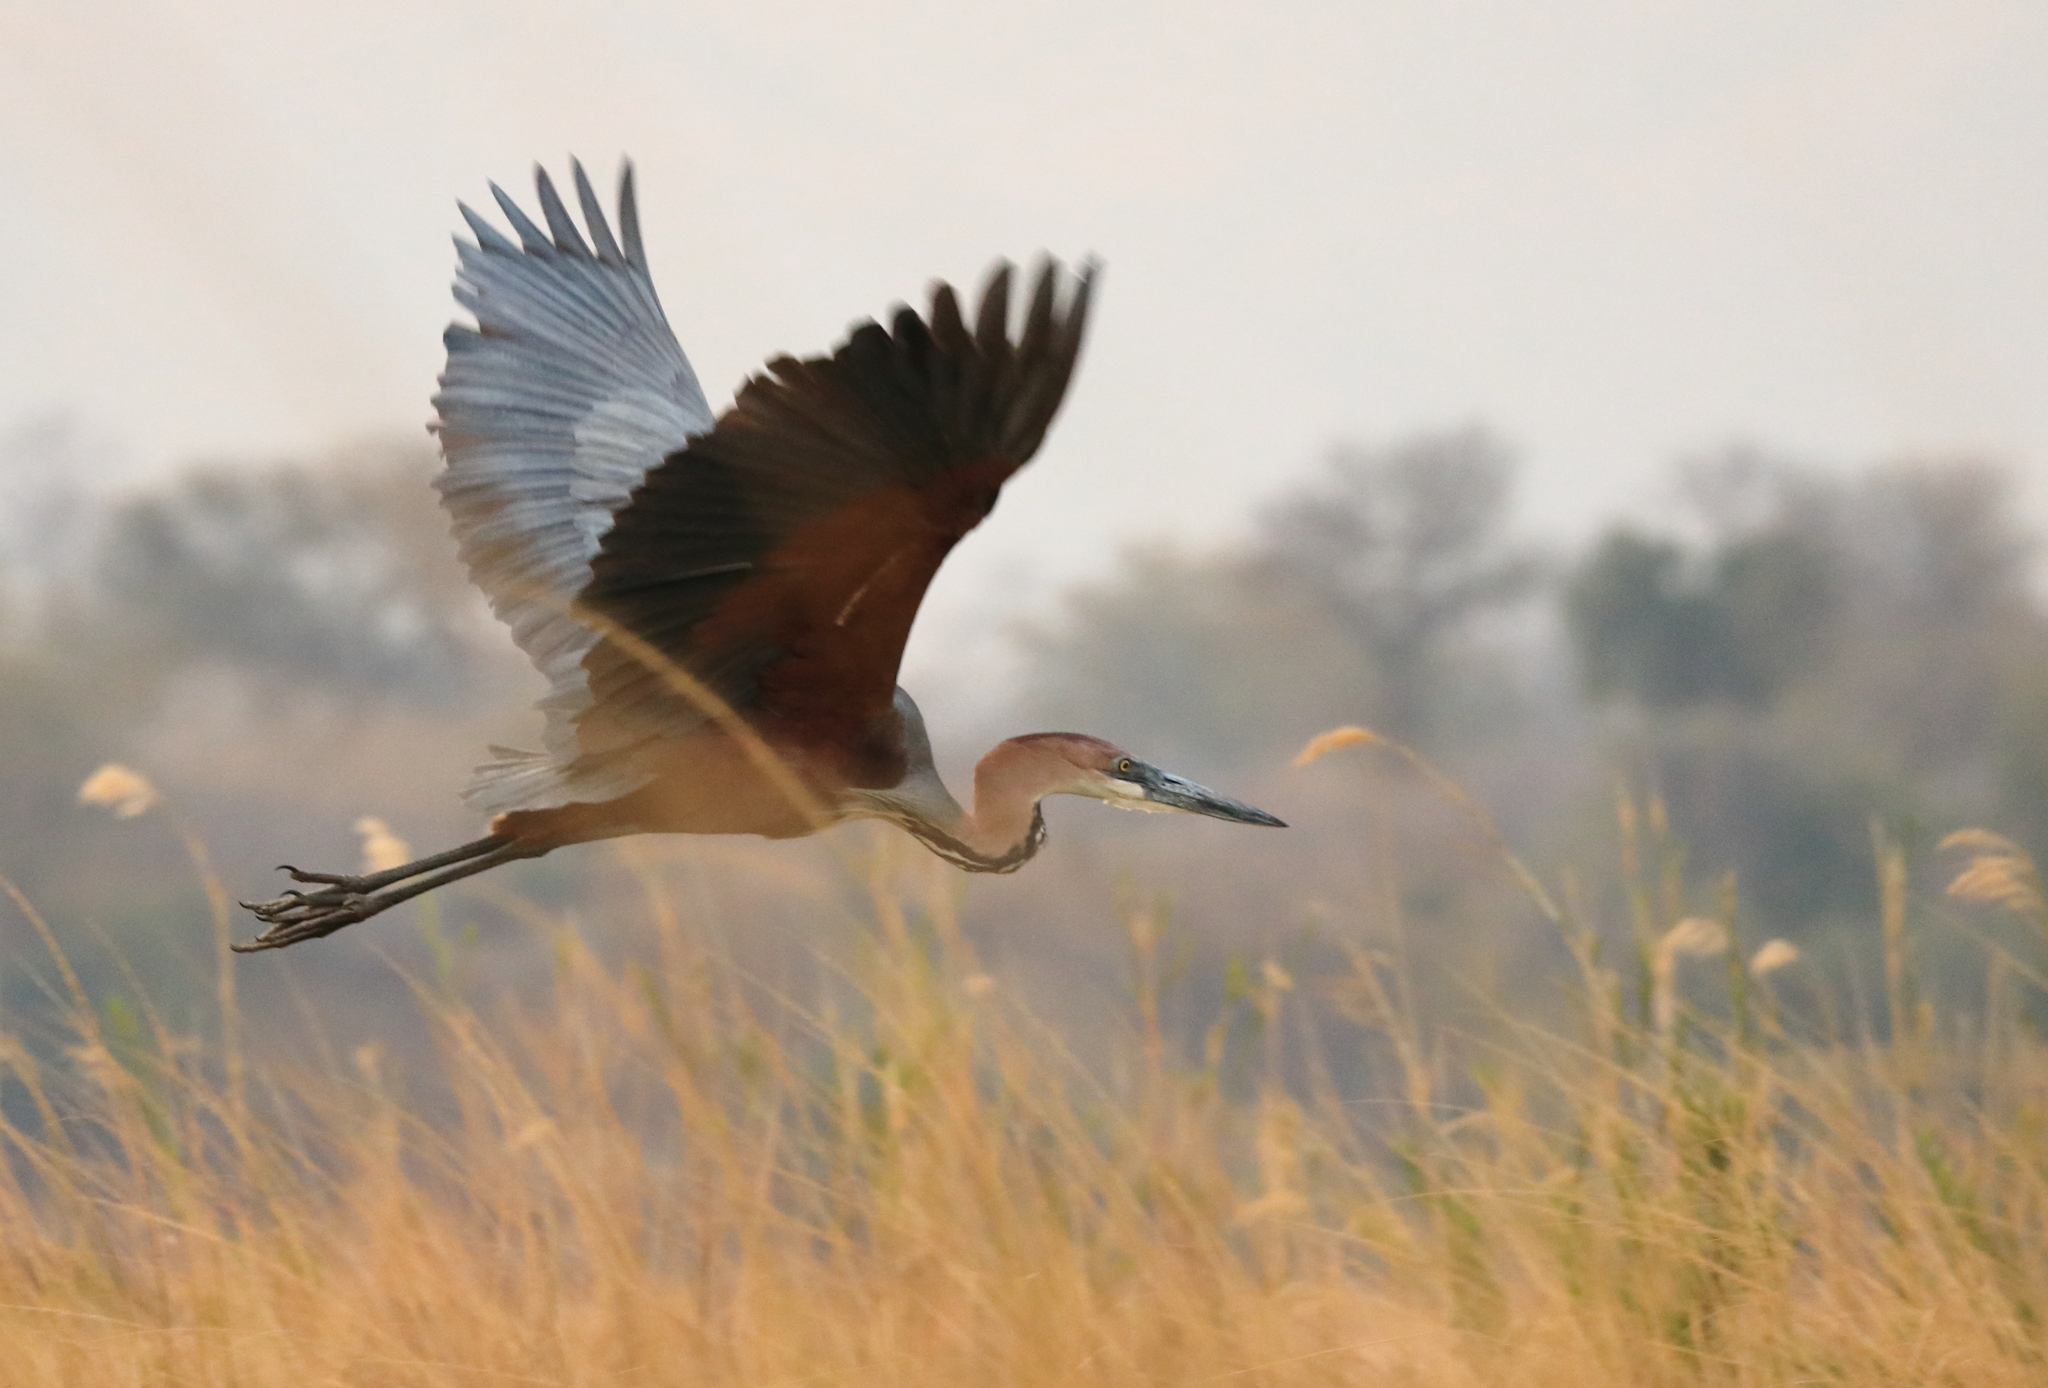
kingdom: Animalia
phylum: Chordata
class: Aves
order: Pelecaniformes
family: Ardeidae
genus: Ardea
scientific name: Ardea goliath
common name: Goliath heron
